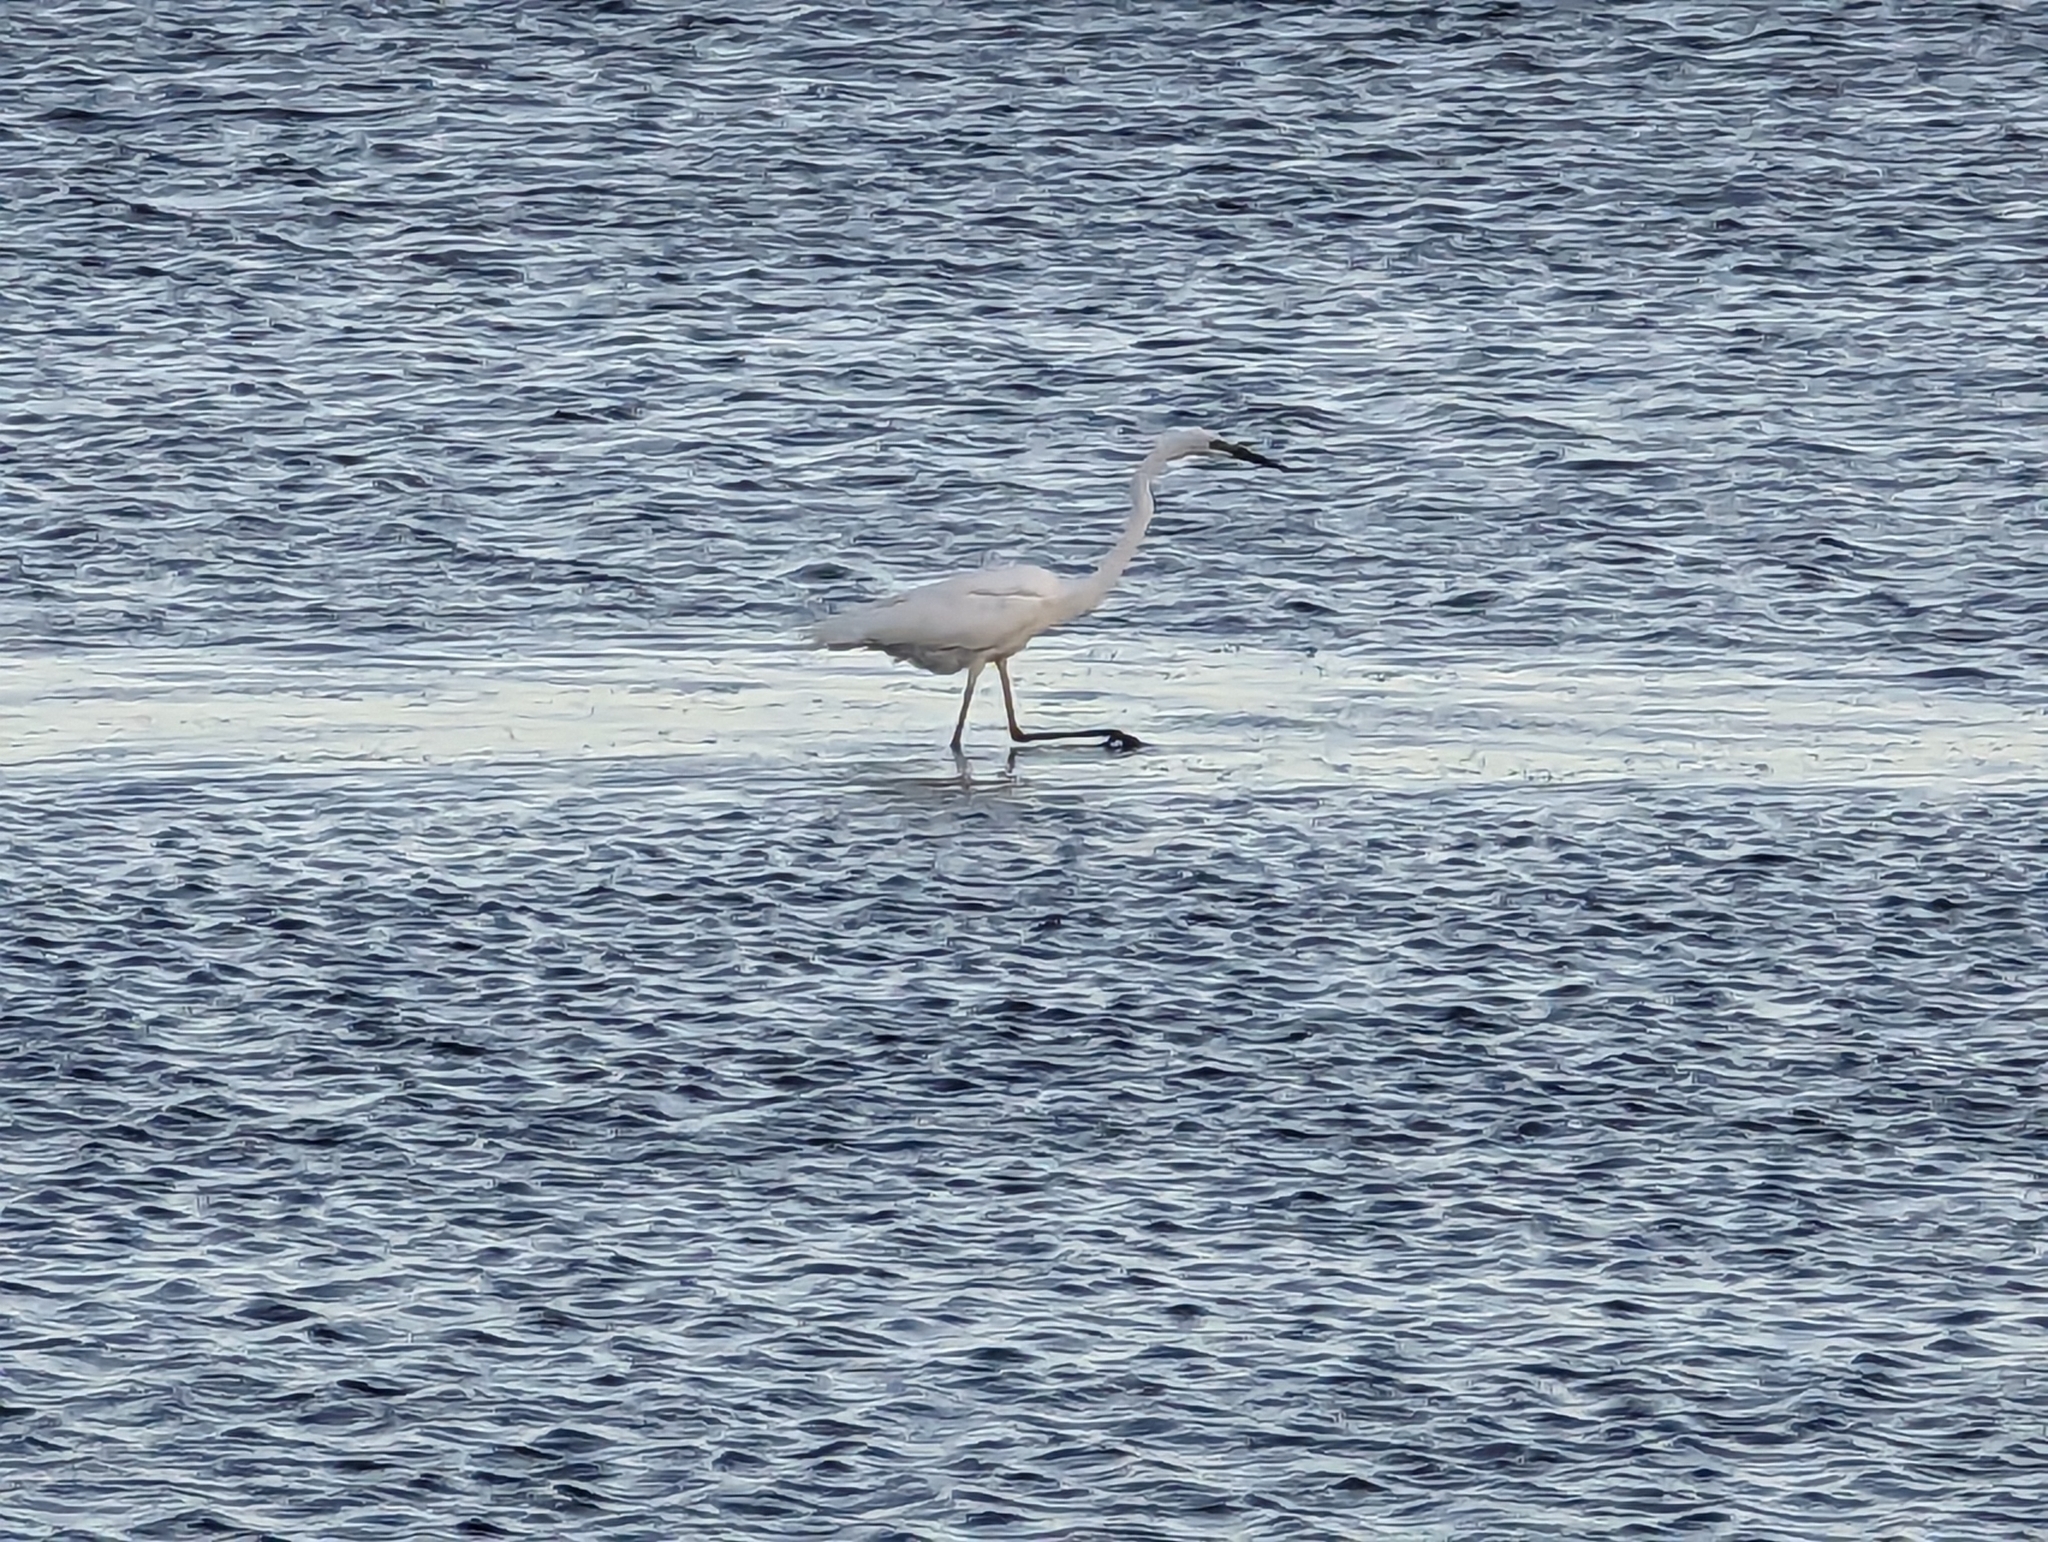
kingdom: Animalia
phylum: Chordata
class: Aves
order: Pelecaniformes
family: Ardeidae
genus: Ardea
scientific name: Ardea alba
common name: Great egret
